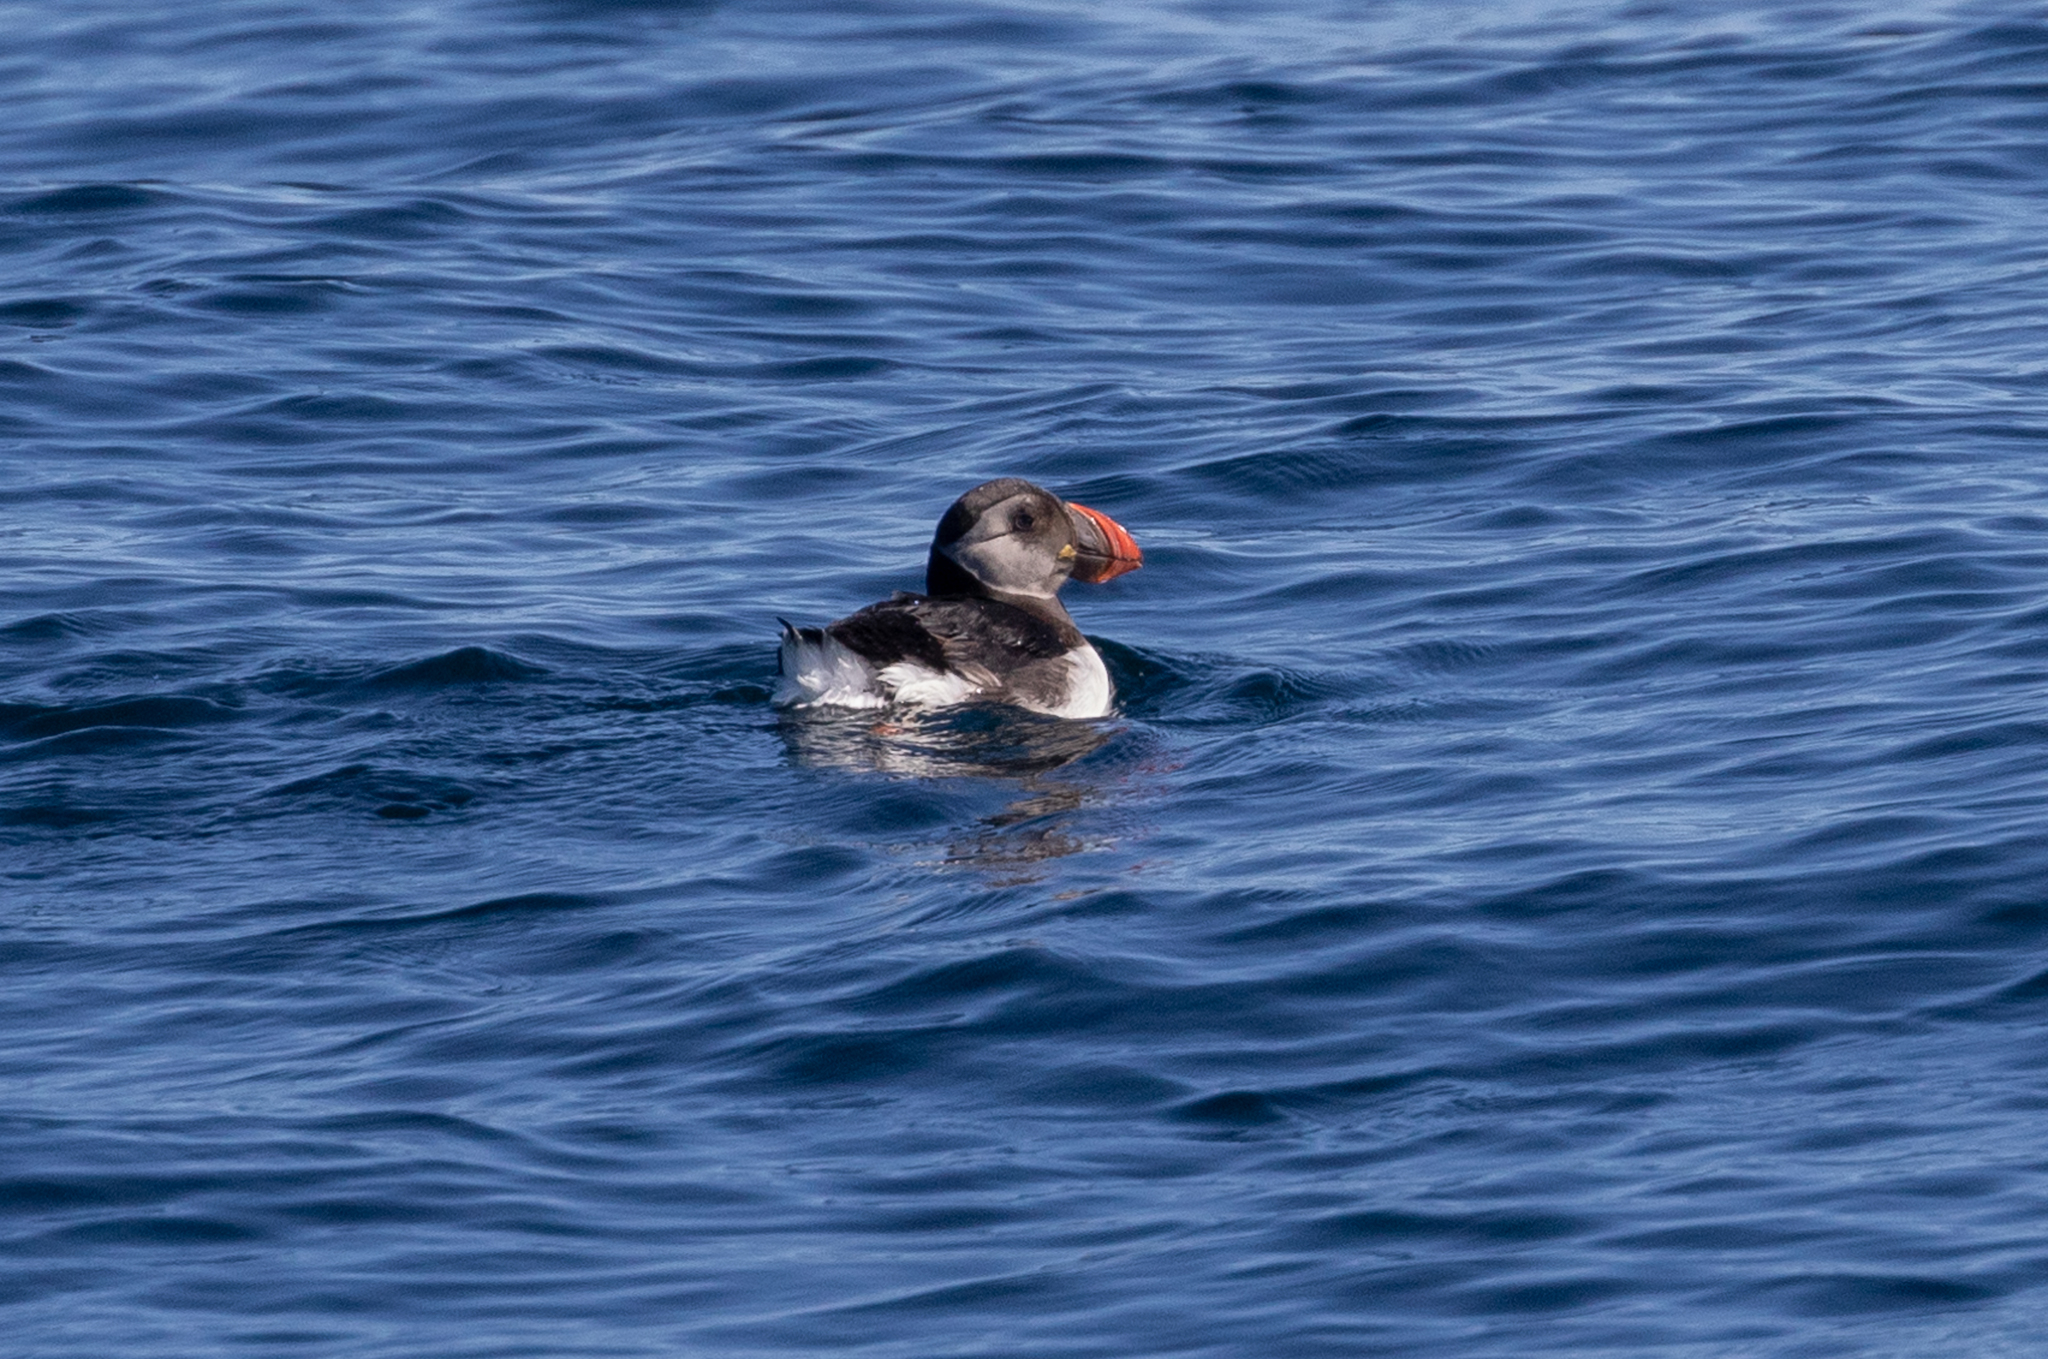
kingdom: Animalia
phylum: Chordata
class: Aves
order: Charadriiformes
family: Alcidae
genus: Fratercula
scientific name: Fratercula arctica
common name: Atlantic puffin
